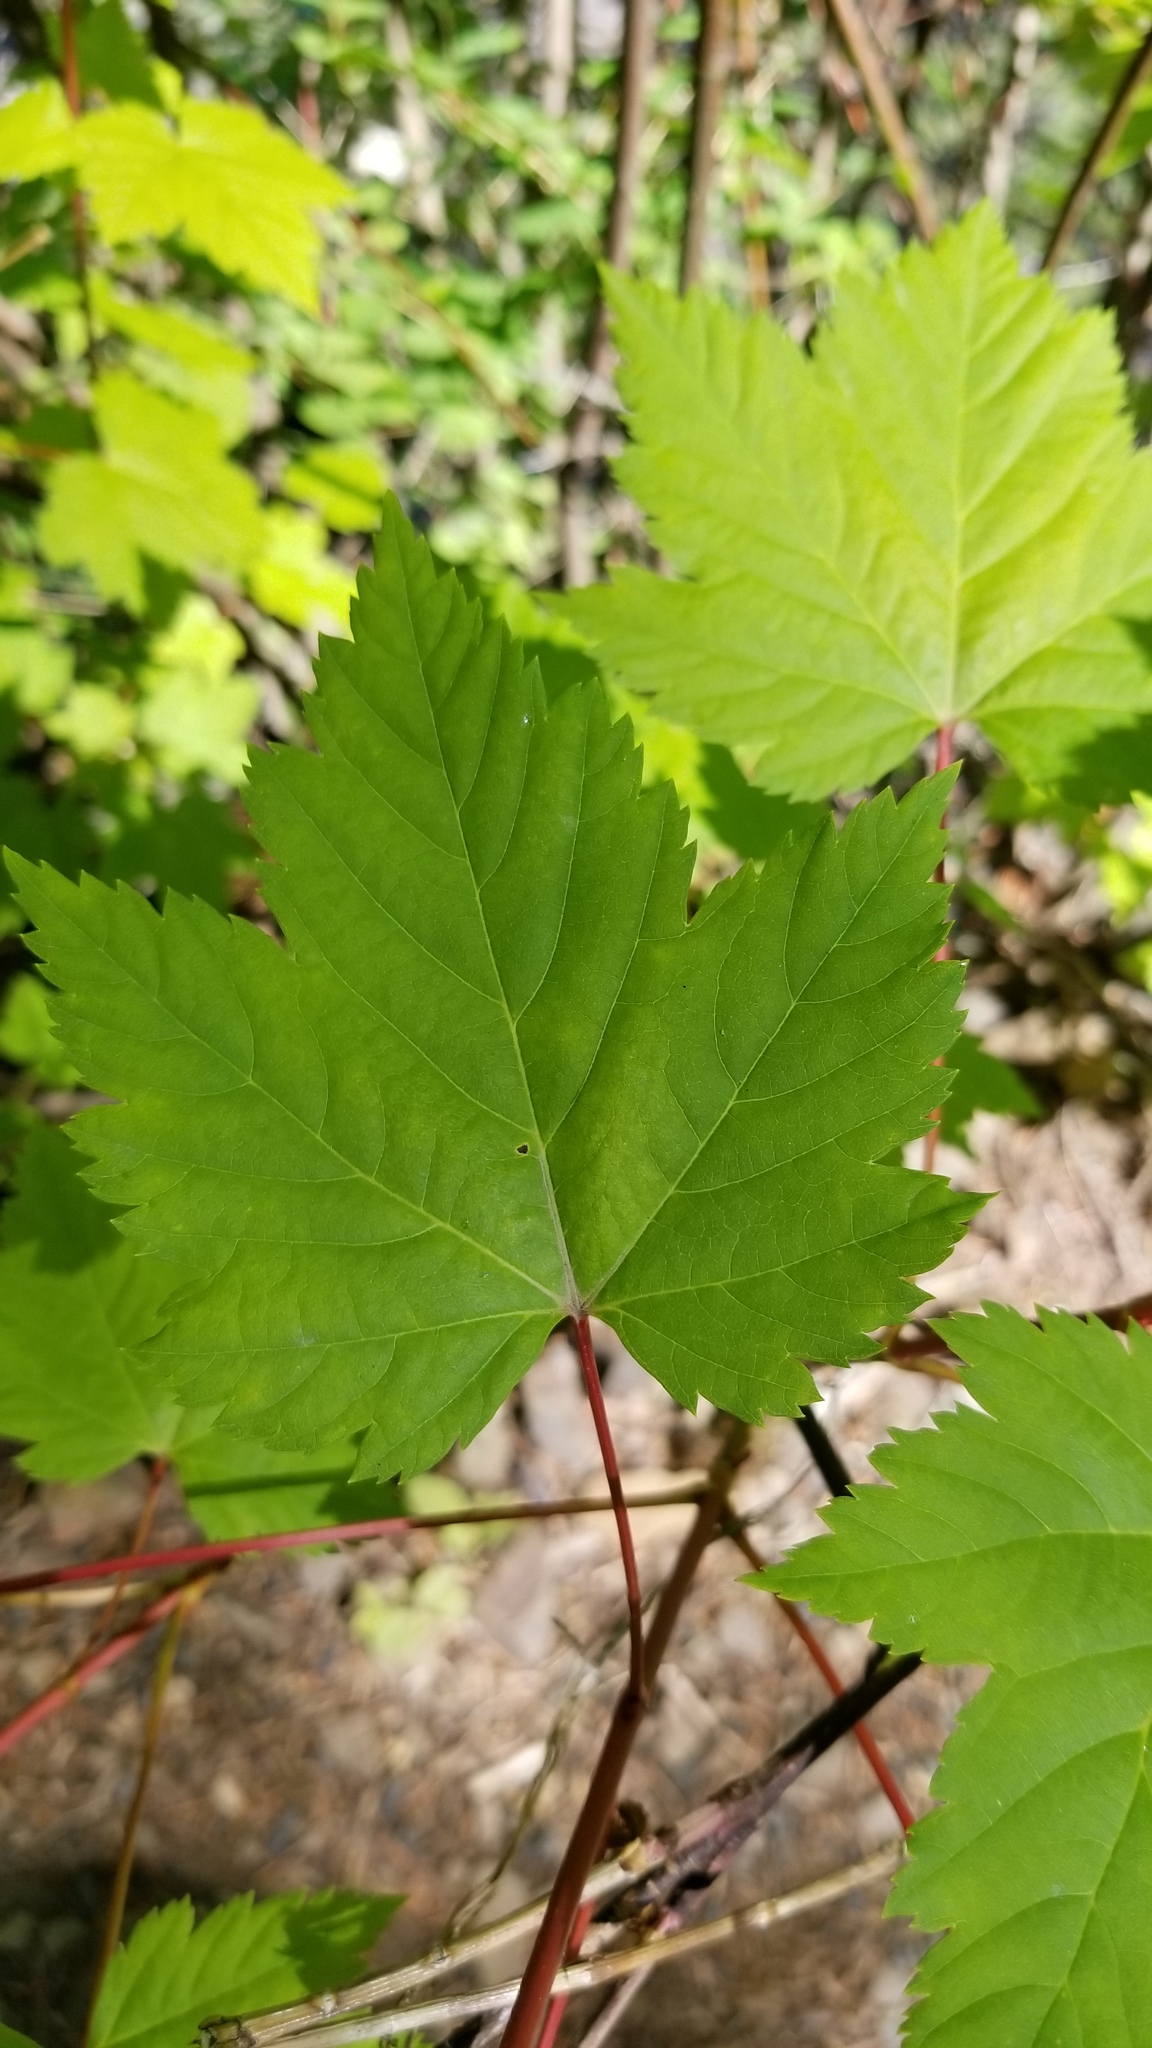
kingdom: Plantae
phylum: Tracheophyta
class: Magnoliopsida
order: Sapindales
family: Sapindaceae
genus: Acer
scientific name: Acer glabrum
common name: Rocky mountain maple
